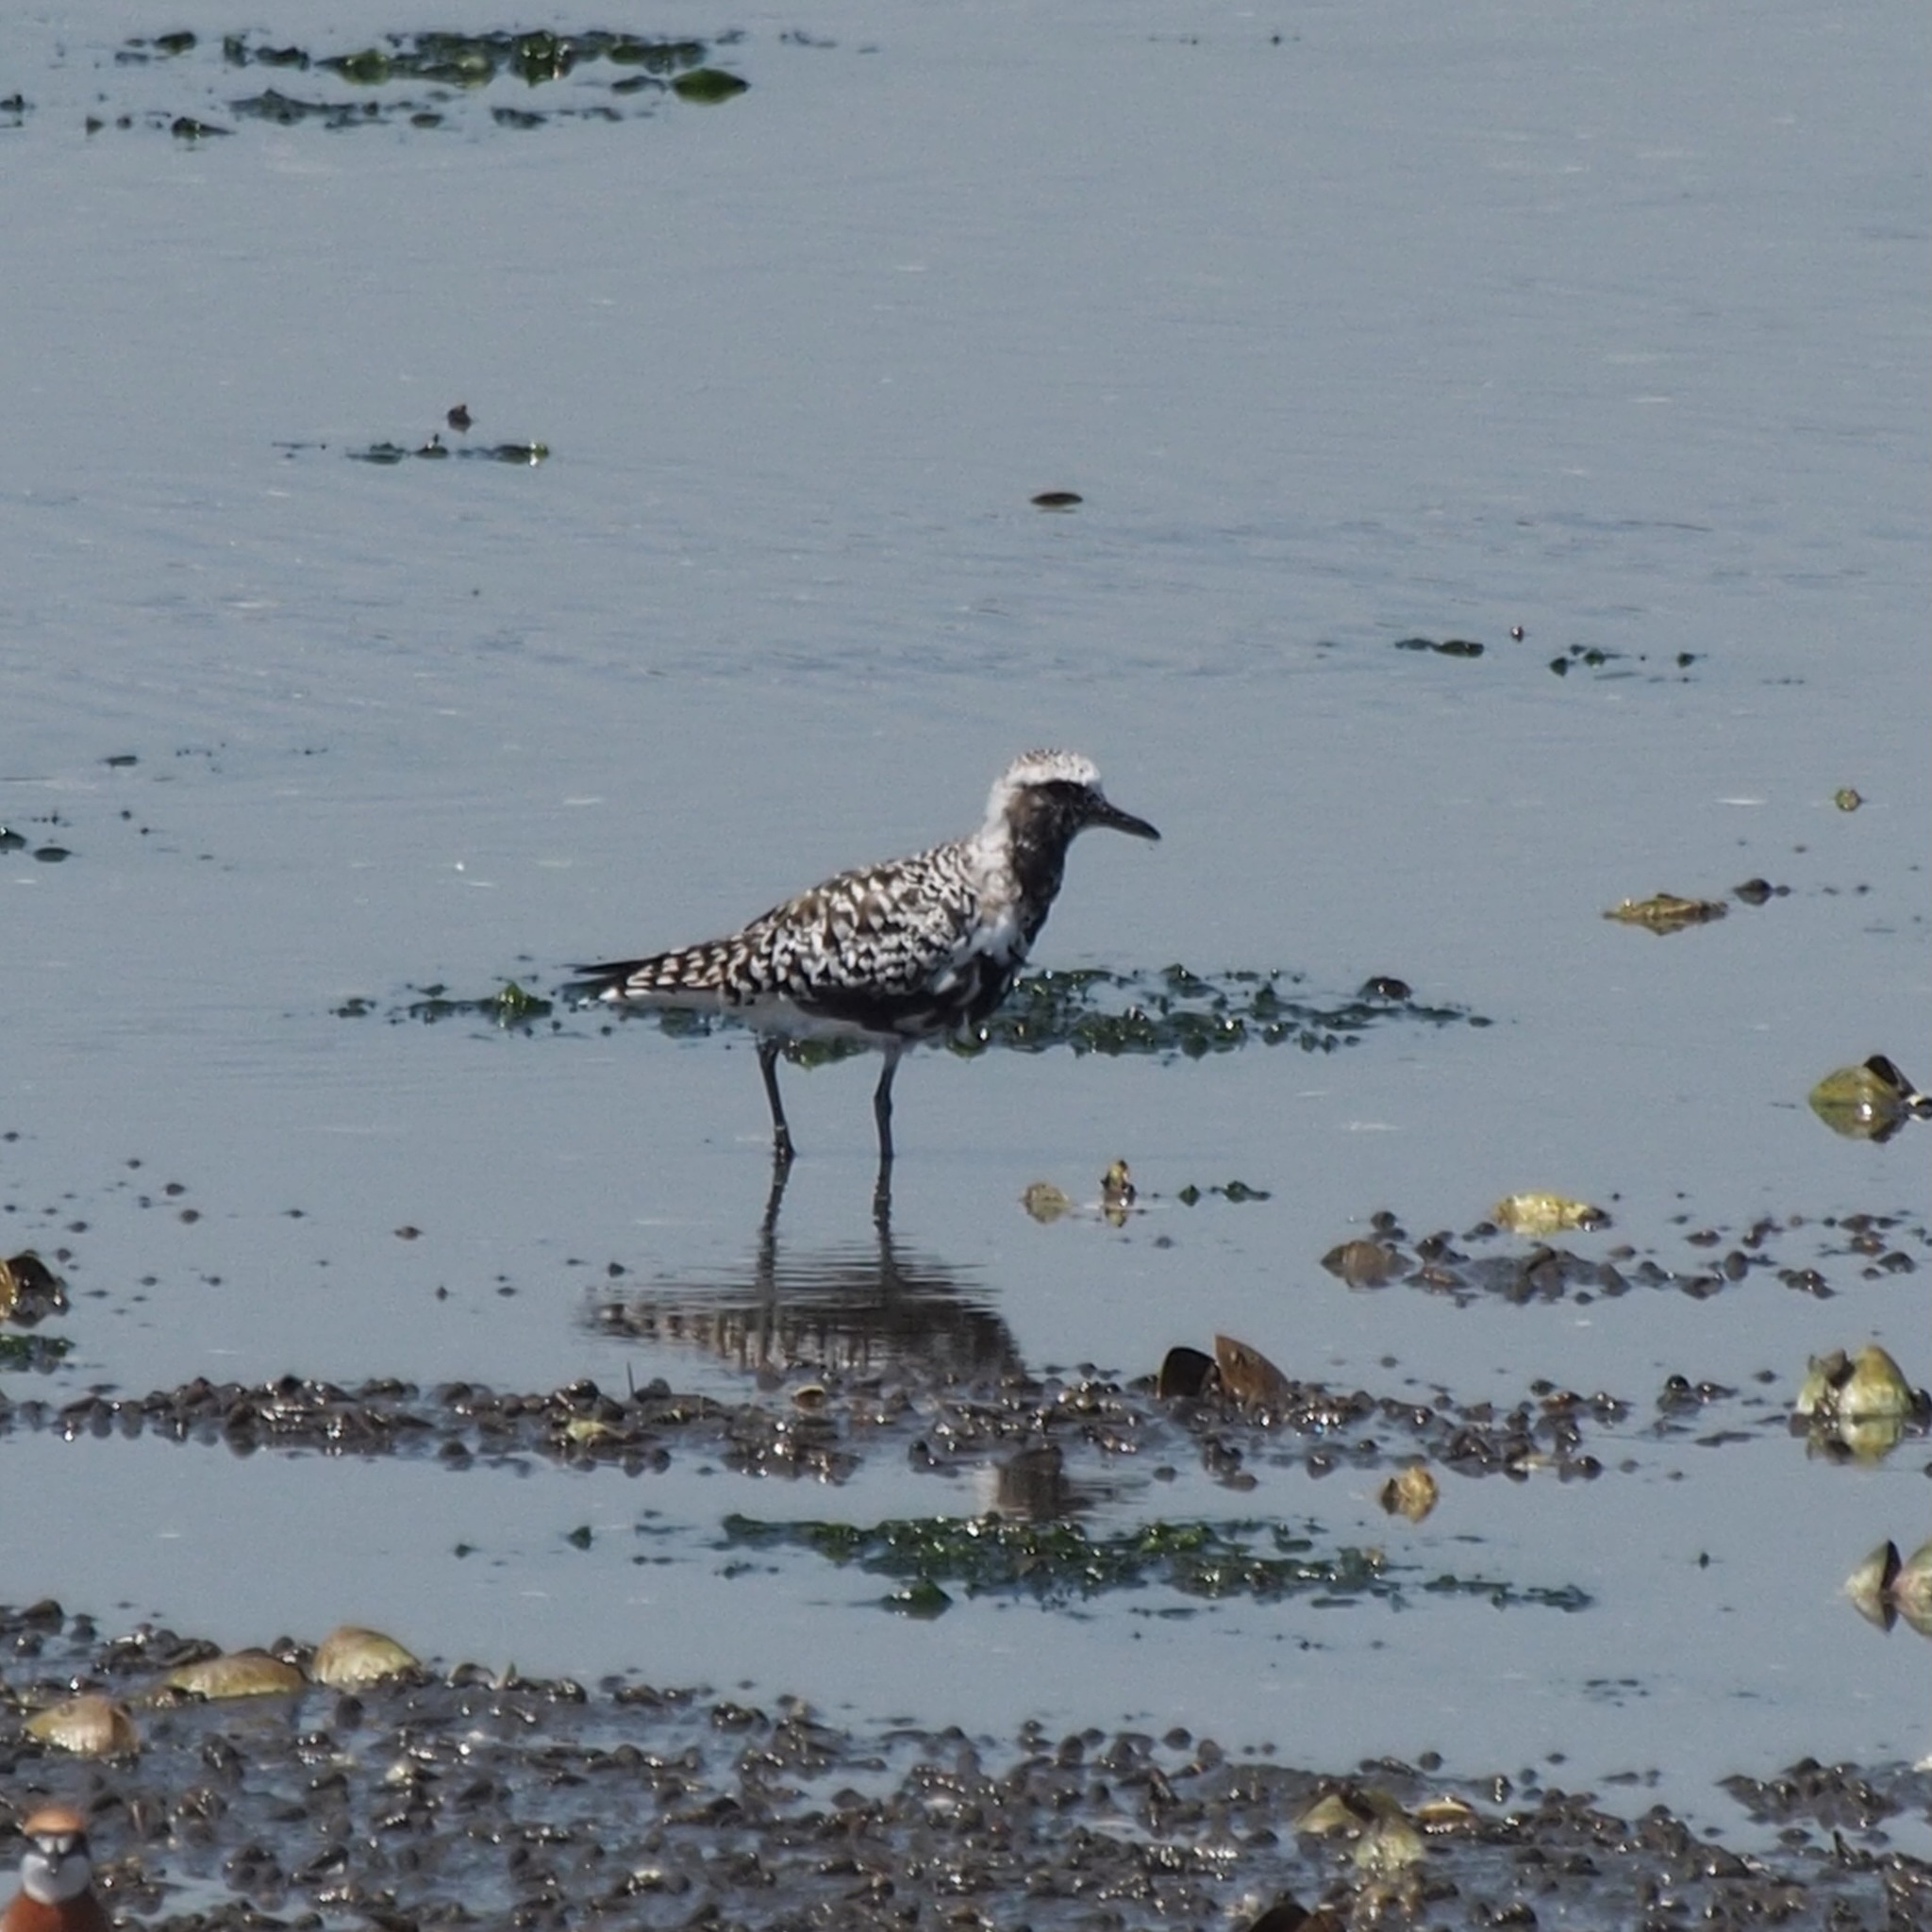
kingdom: Animalia
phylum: Chordata
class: Aves
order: Charadriiformes
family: Charadriidae
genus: Pluvialis
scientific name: Pluvialis squatarola
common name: Grey plover
